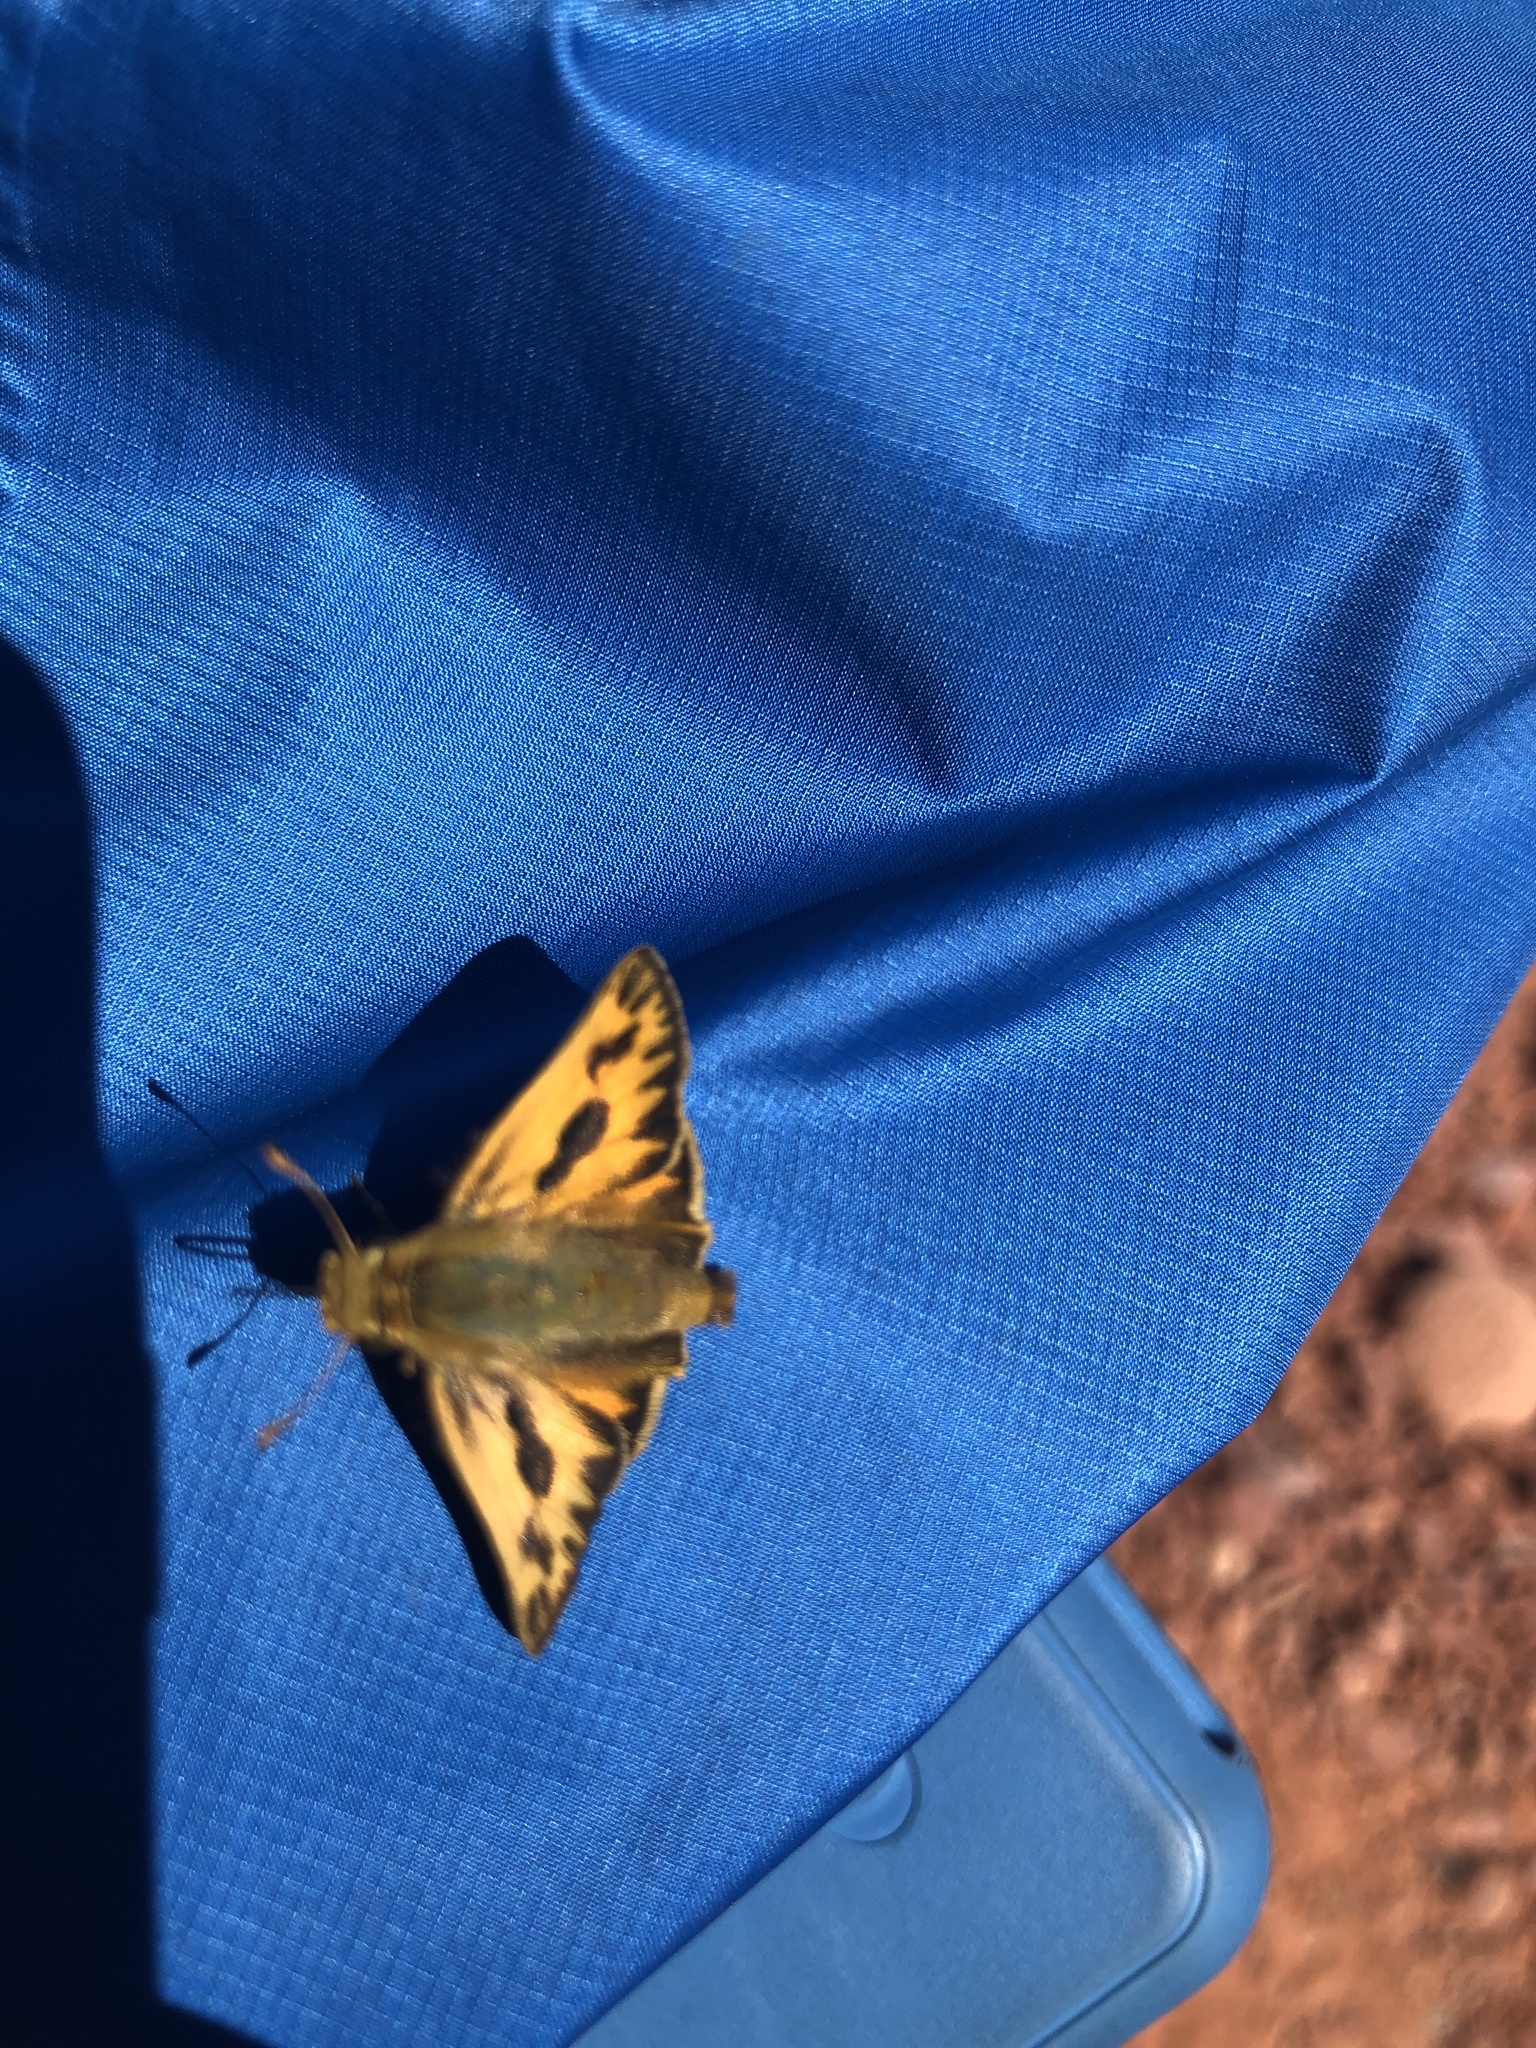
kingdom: Animalia
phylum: Arthropoda
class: Insecta
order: Lepidoptera
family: Hesperiidae
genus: Hylephila
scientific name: Hylephila phyleus
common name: Fiery skipper
